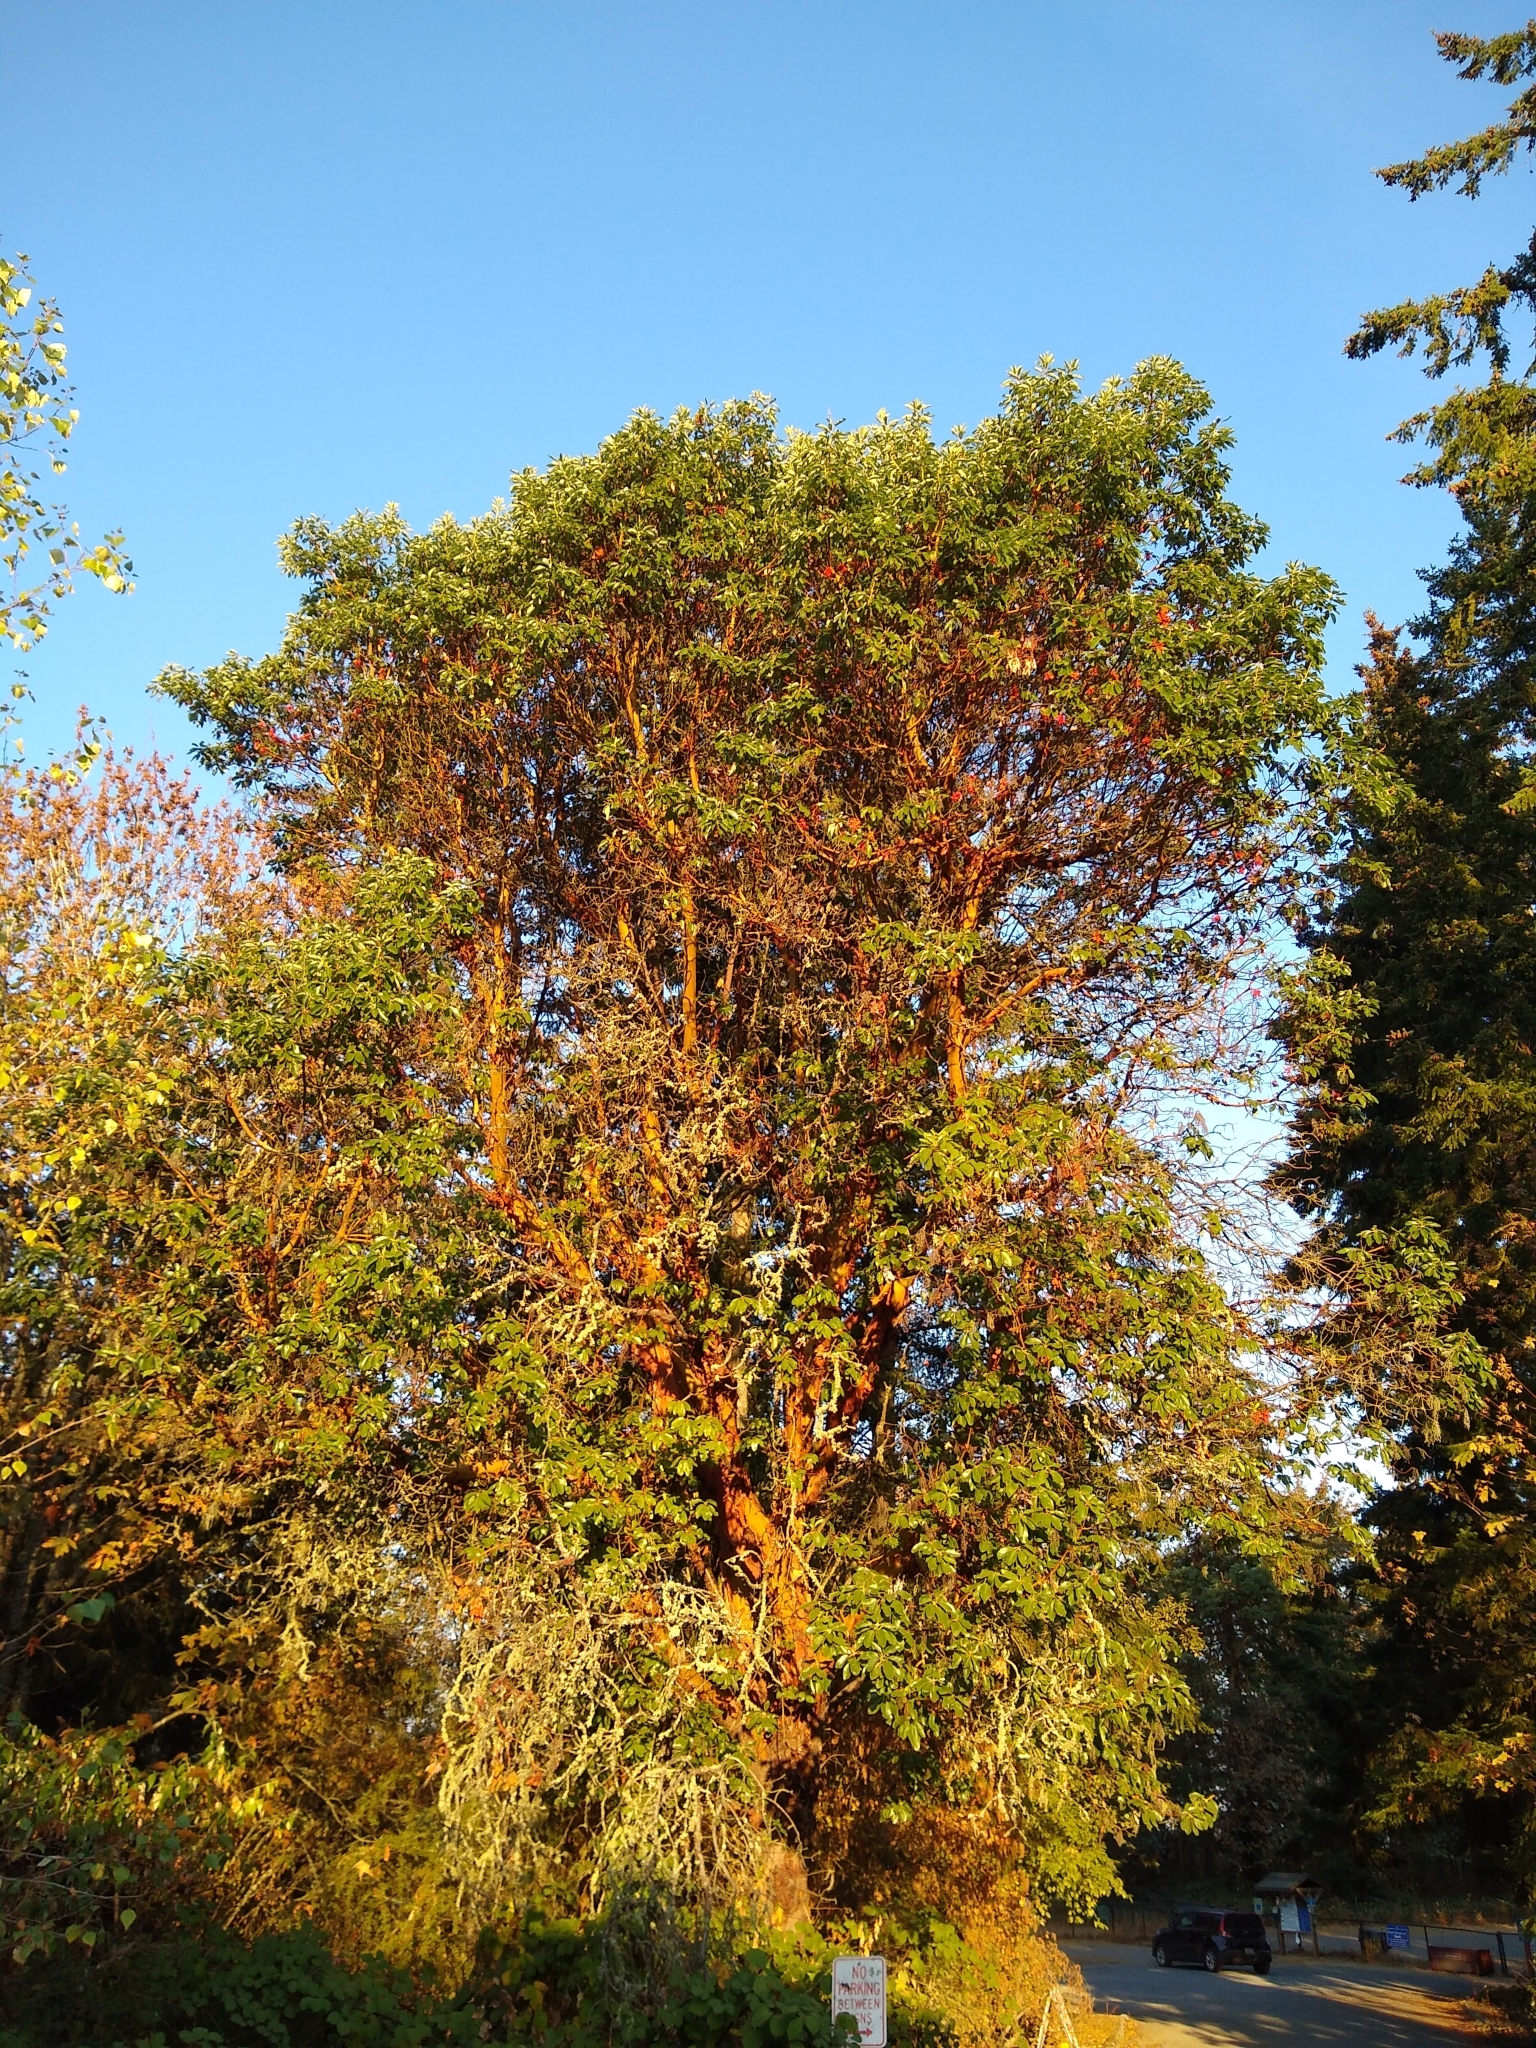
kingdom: Plantae
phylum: Tracheophyta
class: Magnoliopsida
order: Ericales
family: Ericaceae
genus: Arbutus
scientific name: Arbutus menziesii
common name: Pacific madrone
